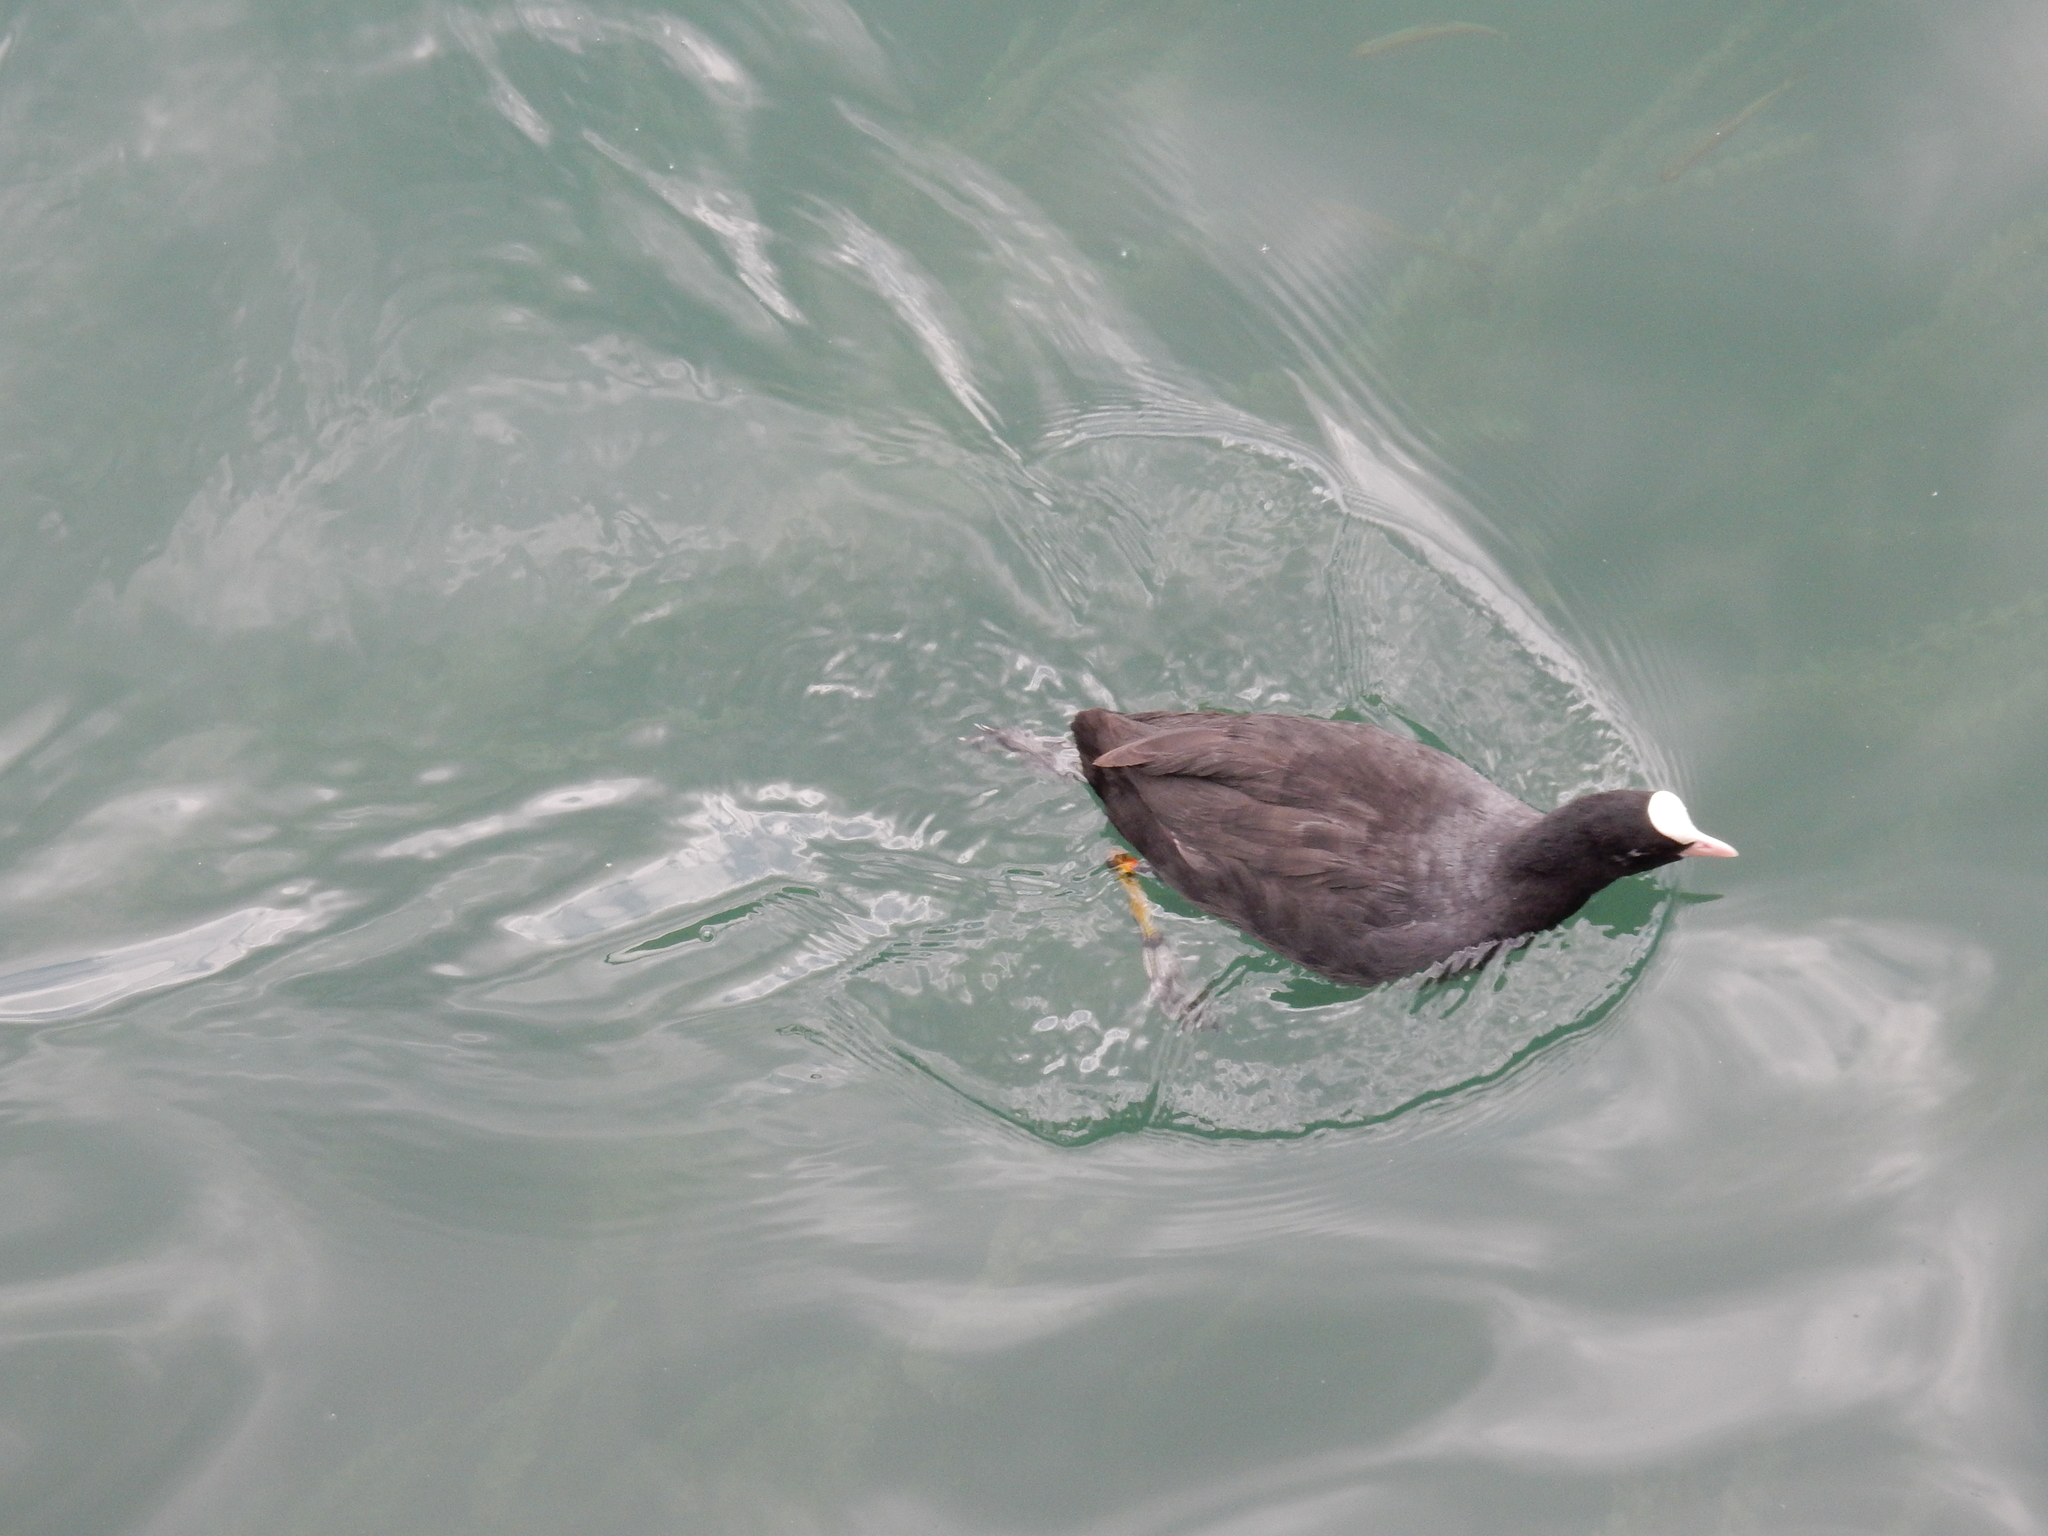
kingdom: Animalia
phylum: Chordata
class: Aves
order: Gruiformes
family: Rallidae
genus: Fulica
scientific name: Fulica atra
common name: Eurasian coot
